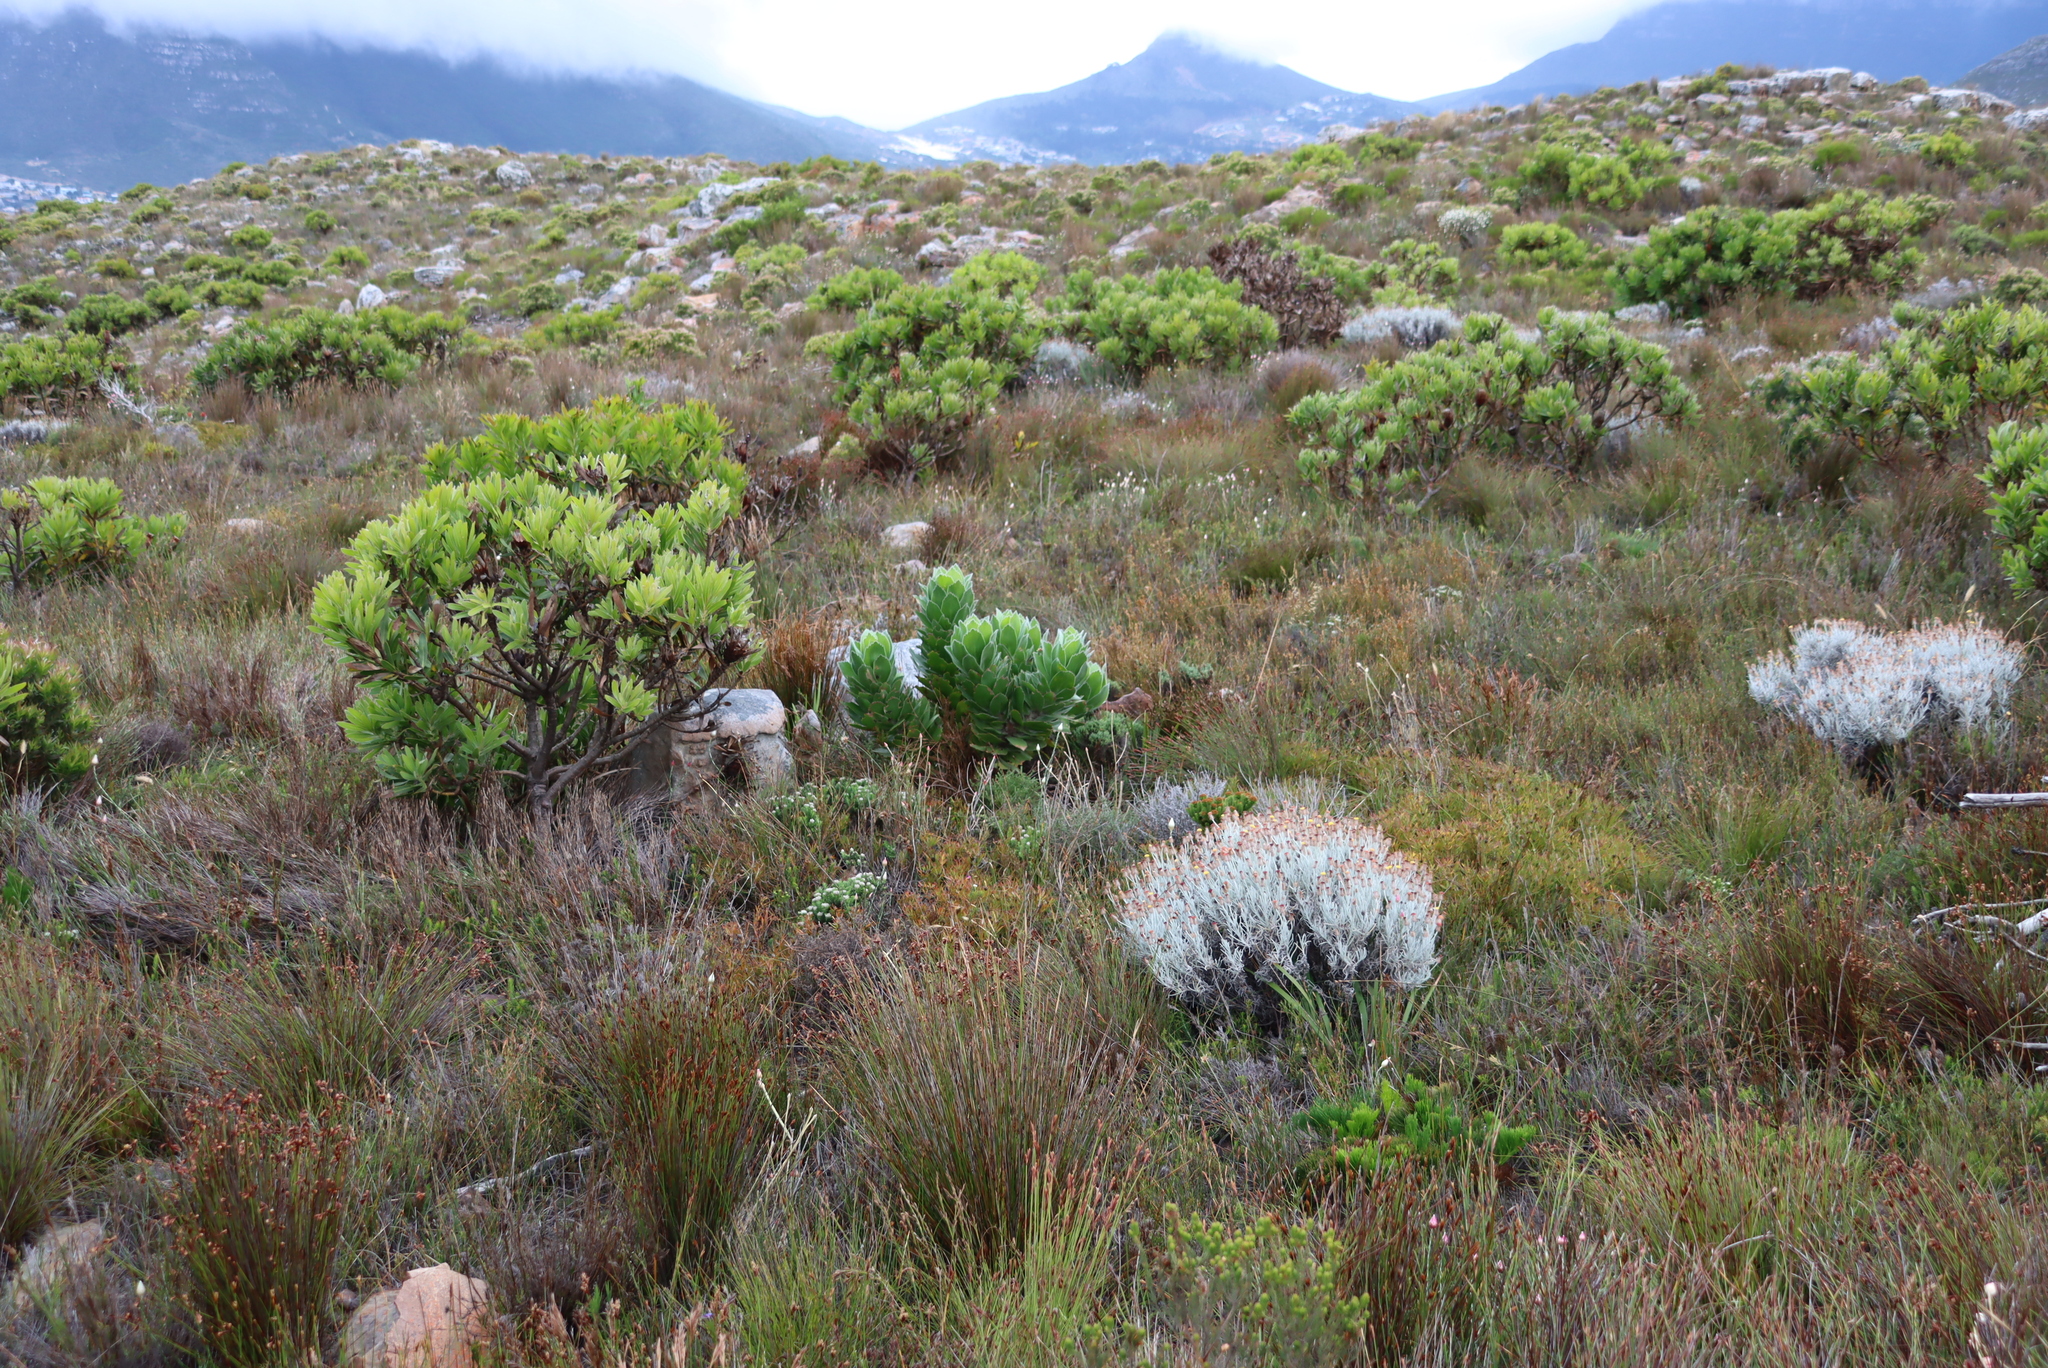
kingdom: Plantae
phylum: Tracheophyta
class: Magnoliopsida
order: Proteales
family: Proteaceae
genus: Leucospermum
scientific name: Leucospermum conocarpodendron
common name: Tree pincushion
